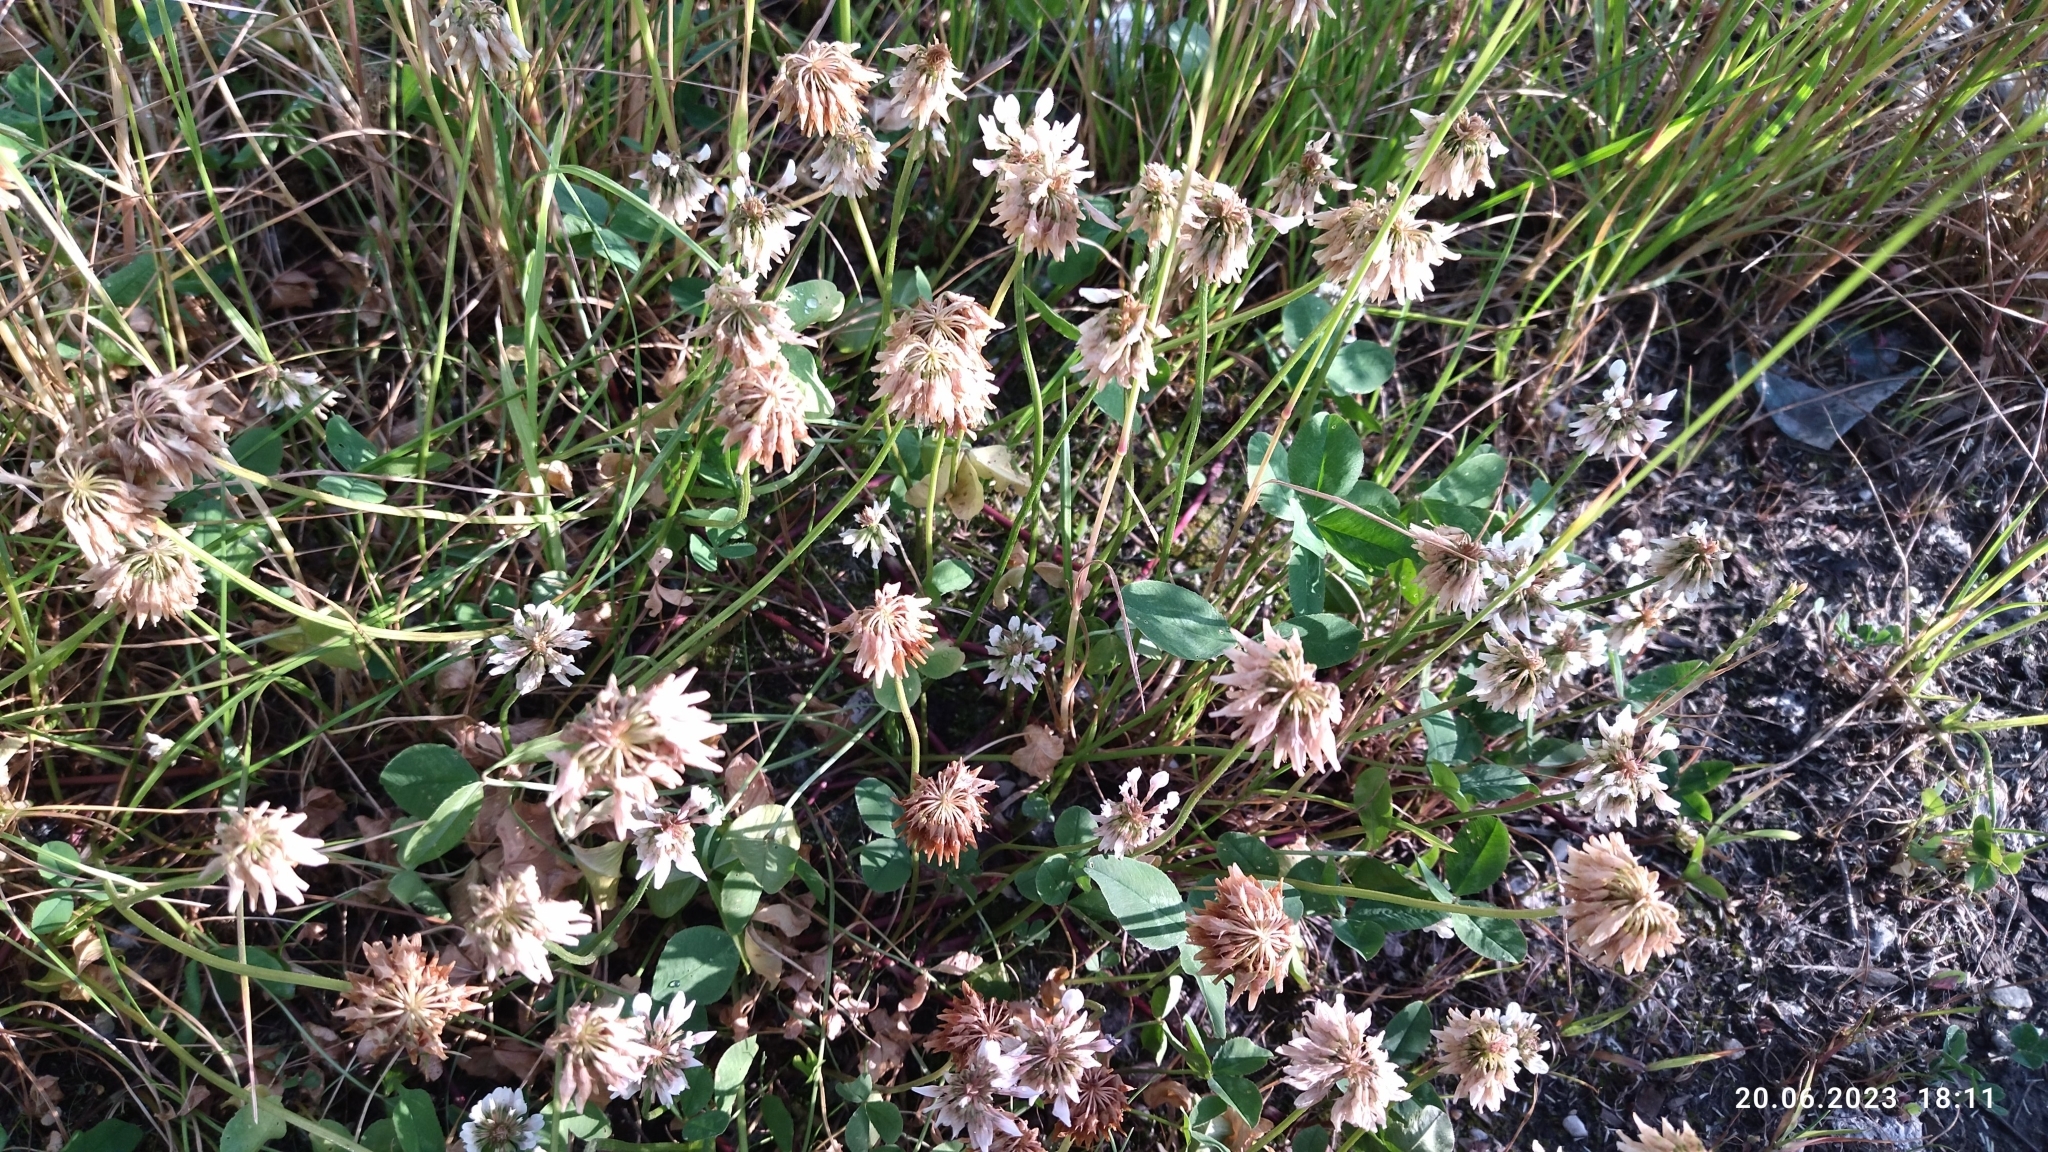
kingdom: Plantae
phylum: Tracheophyta
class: Magnoliopsida
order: Fabales
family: Fabaceae
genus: Trifolium
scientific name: Trifolium repens
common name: White clover
